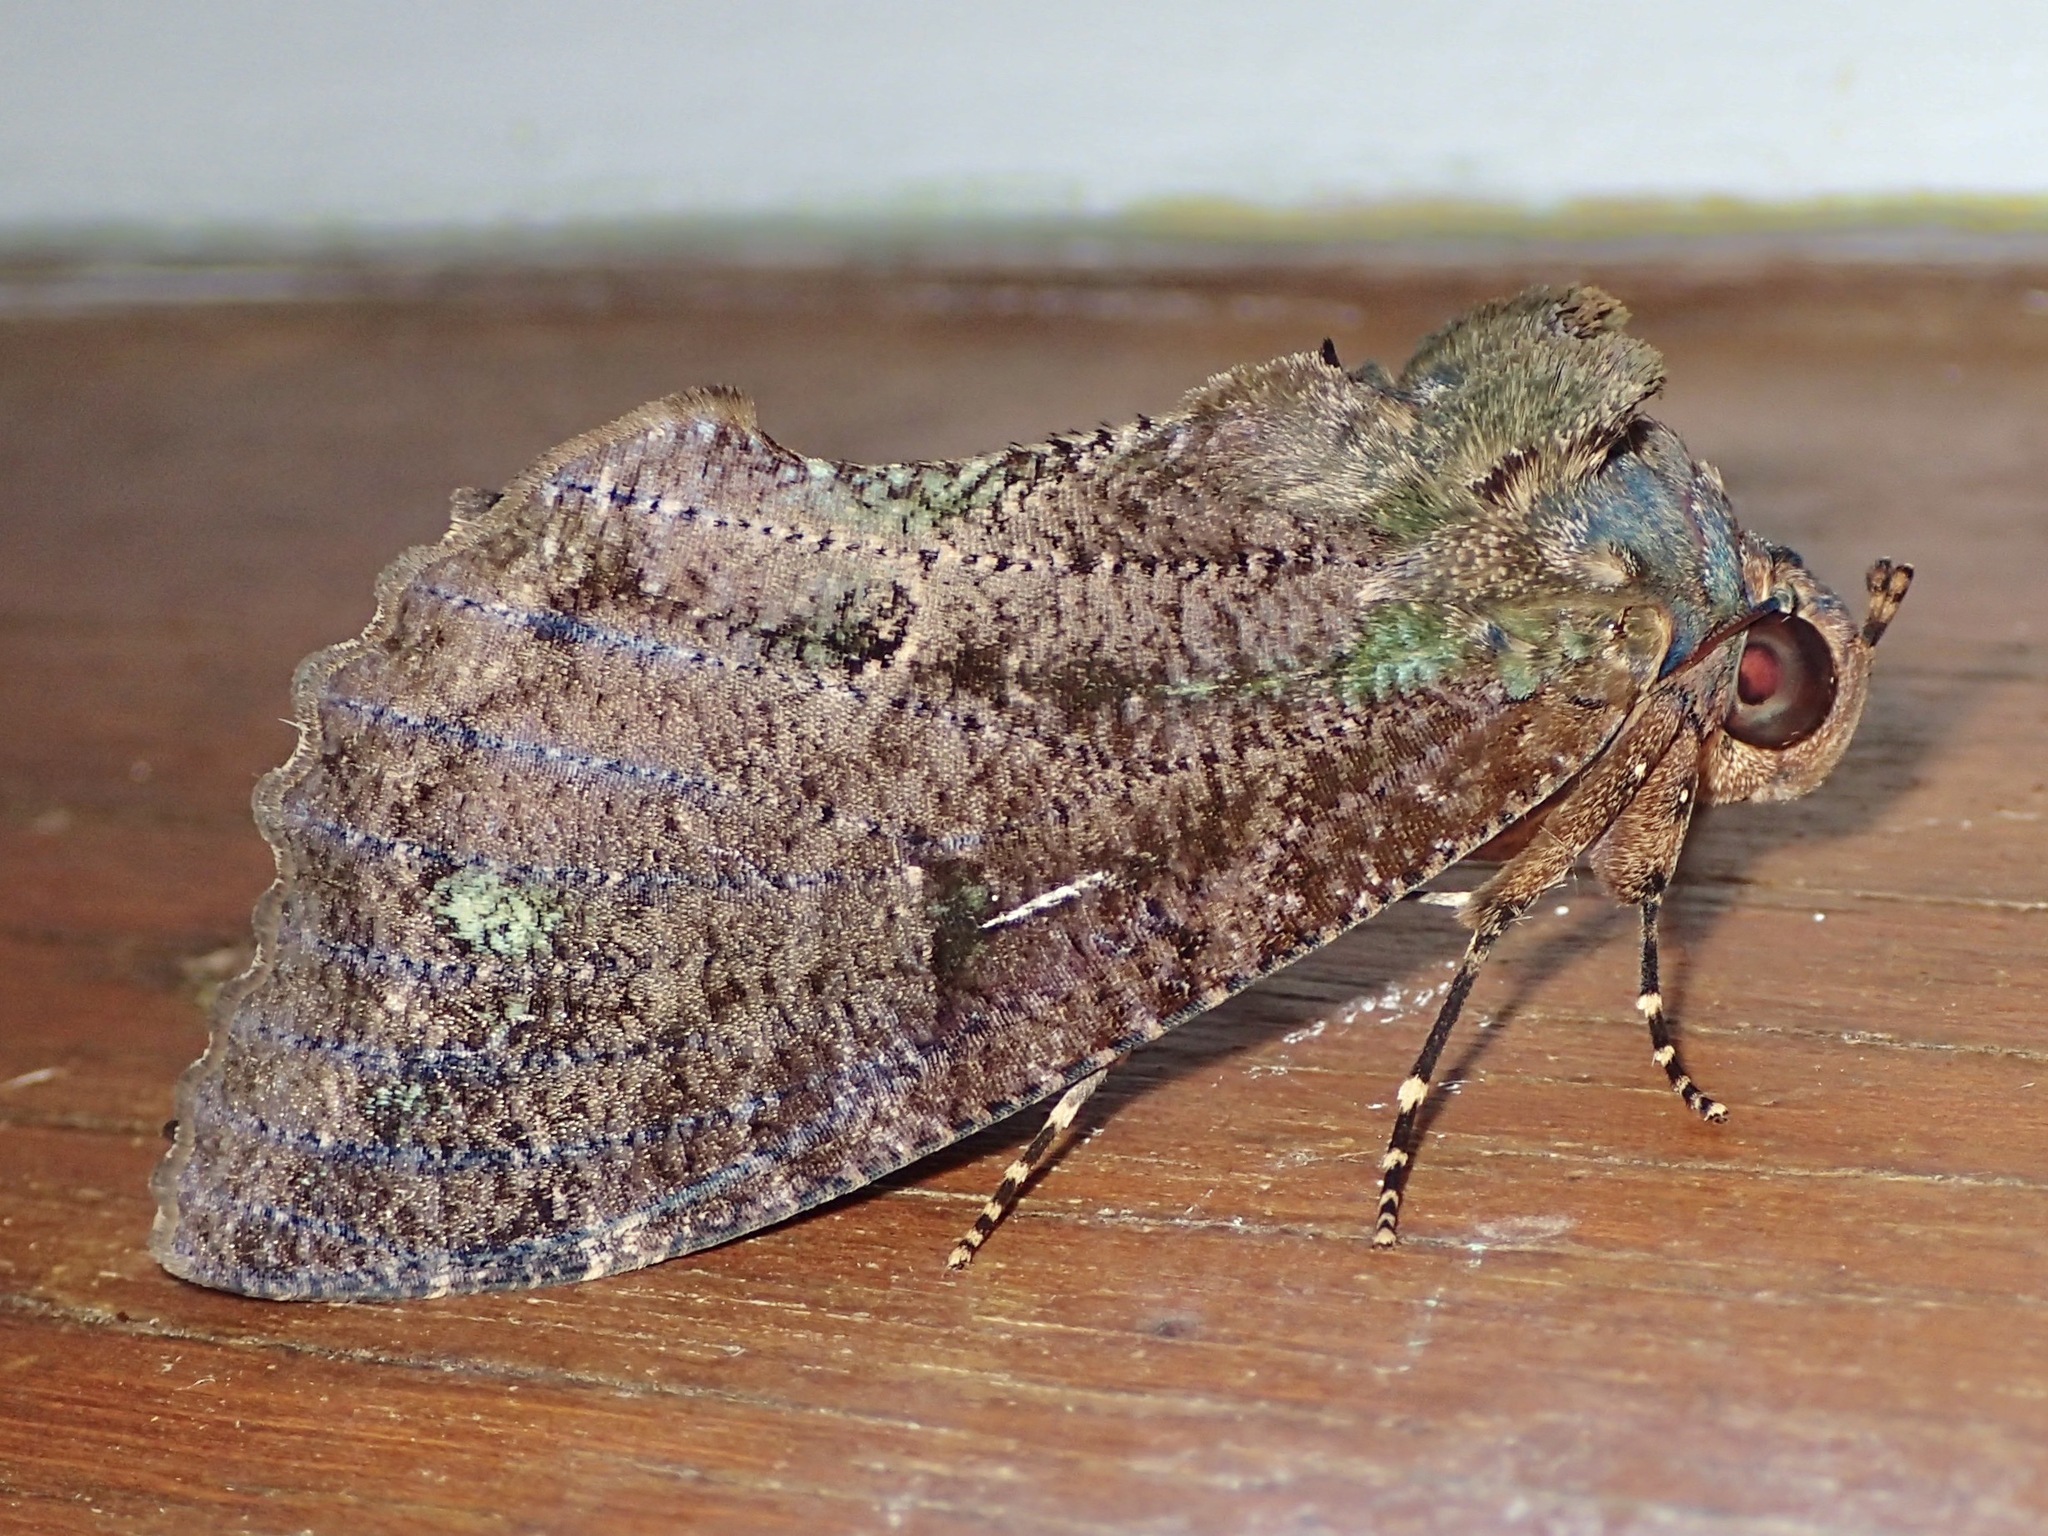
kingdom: Animalia
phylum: Arthropoda
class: Insecta
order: Lepidoptera
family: Erebidae
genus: Eudocima
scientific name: Eudocima jordani
